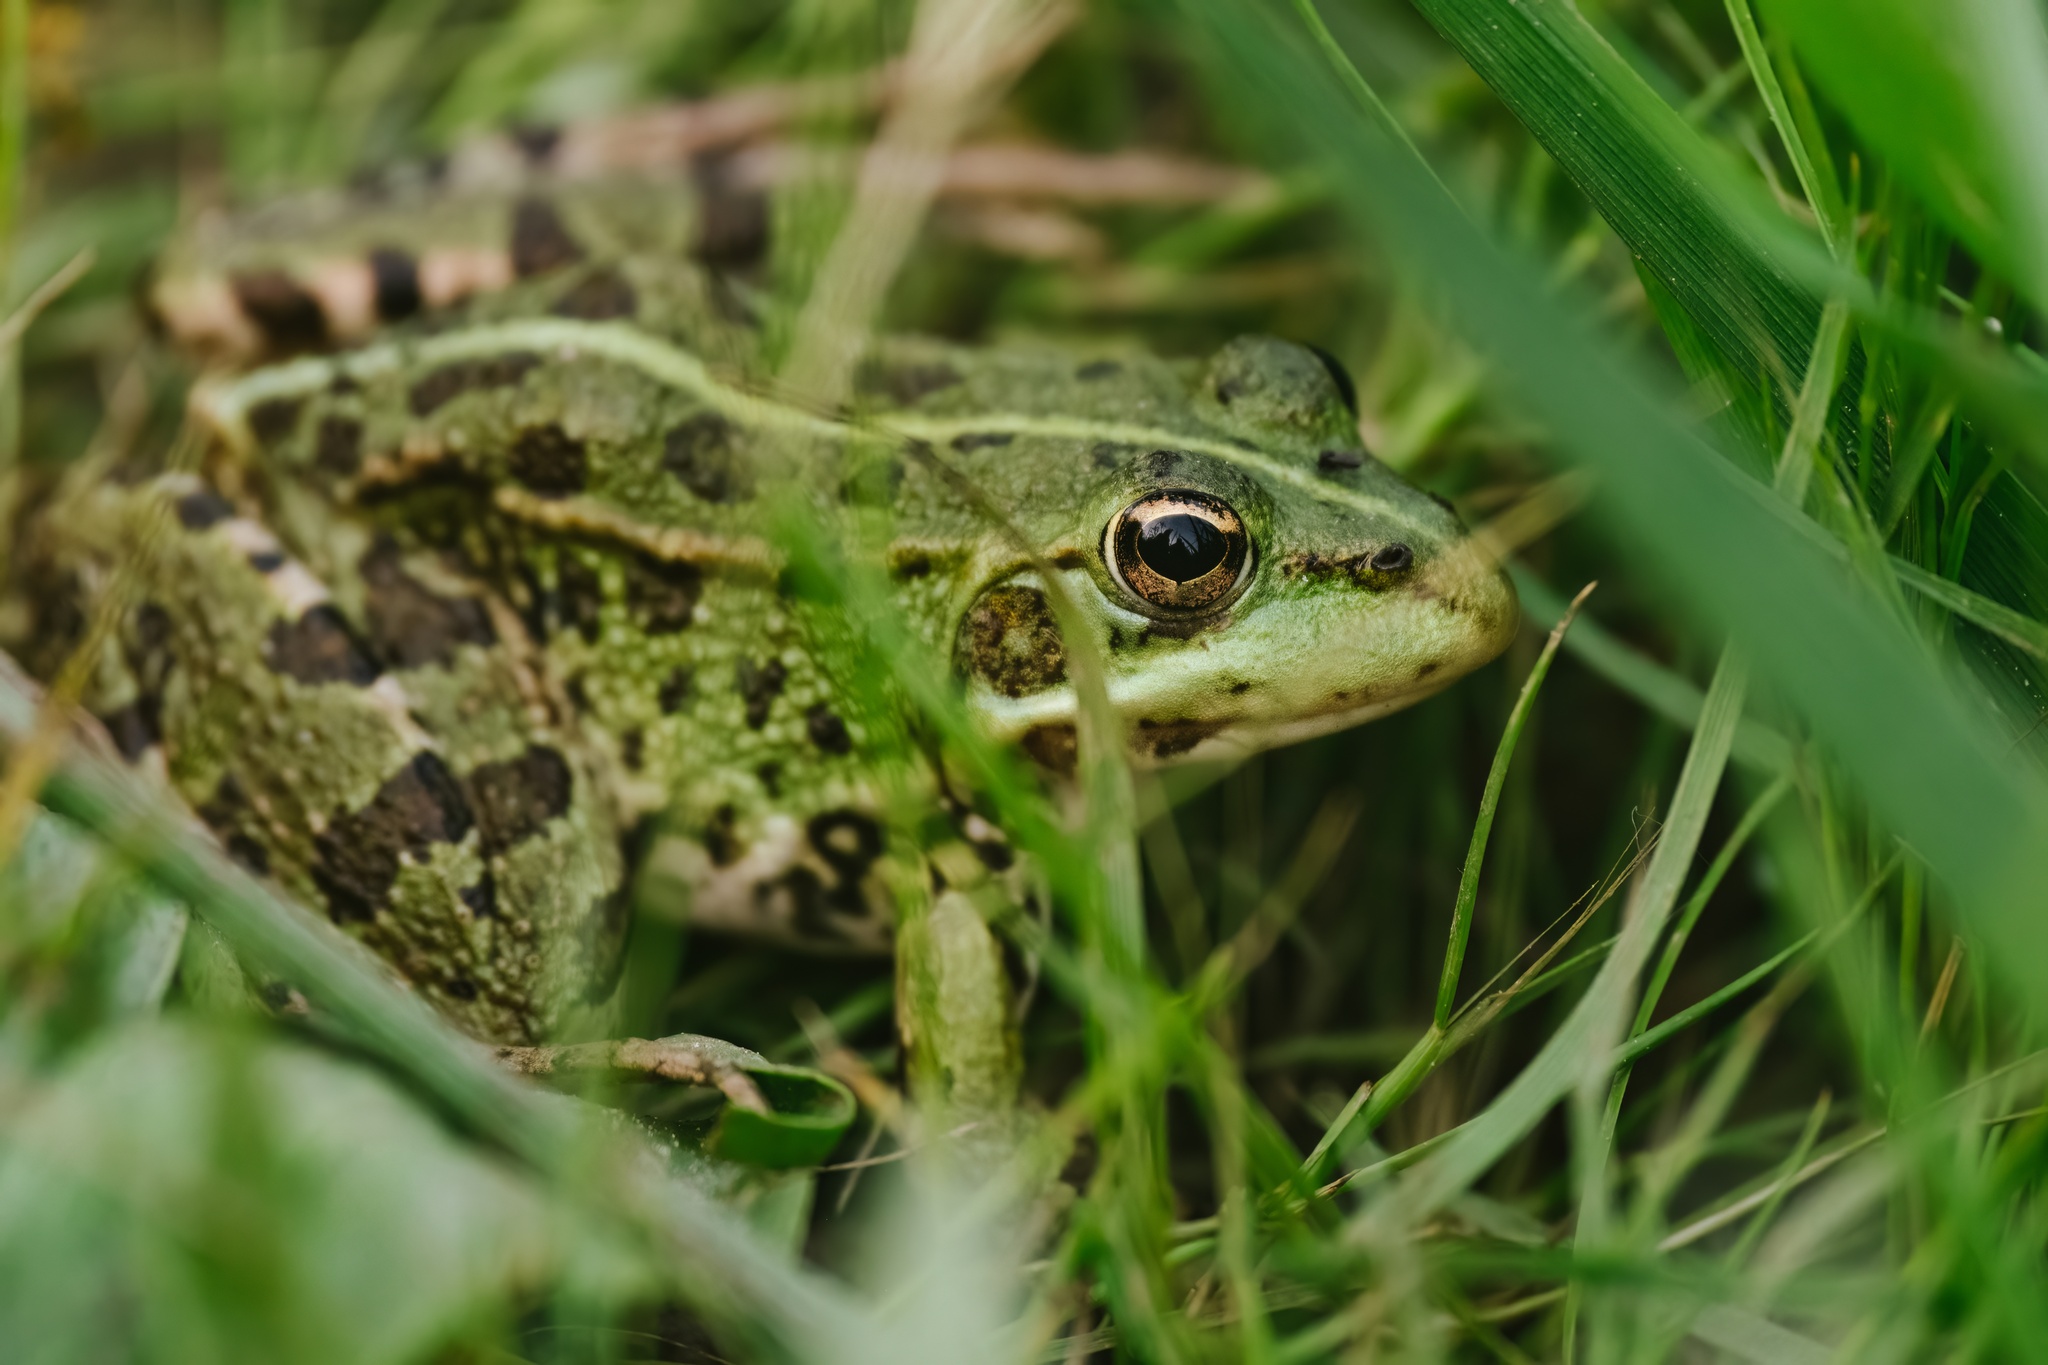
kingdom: Animalia
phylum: Chordata
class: Amphibia
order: Anura
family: Ranidae
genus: Pelophylax
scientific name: Pelophylax perezi
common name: Perez's frog
